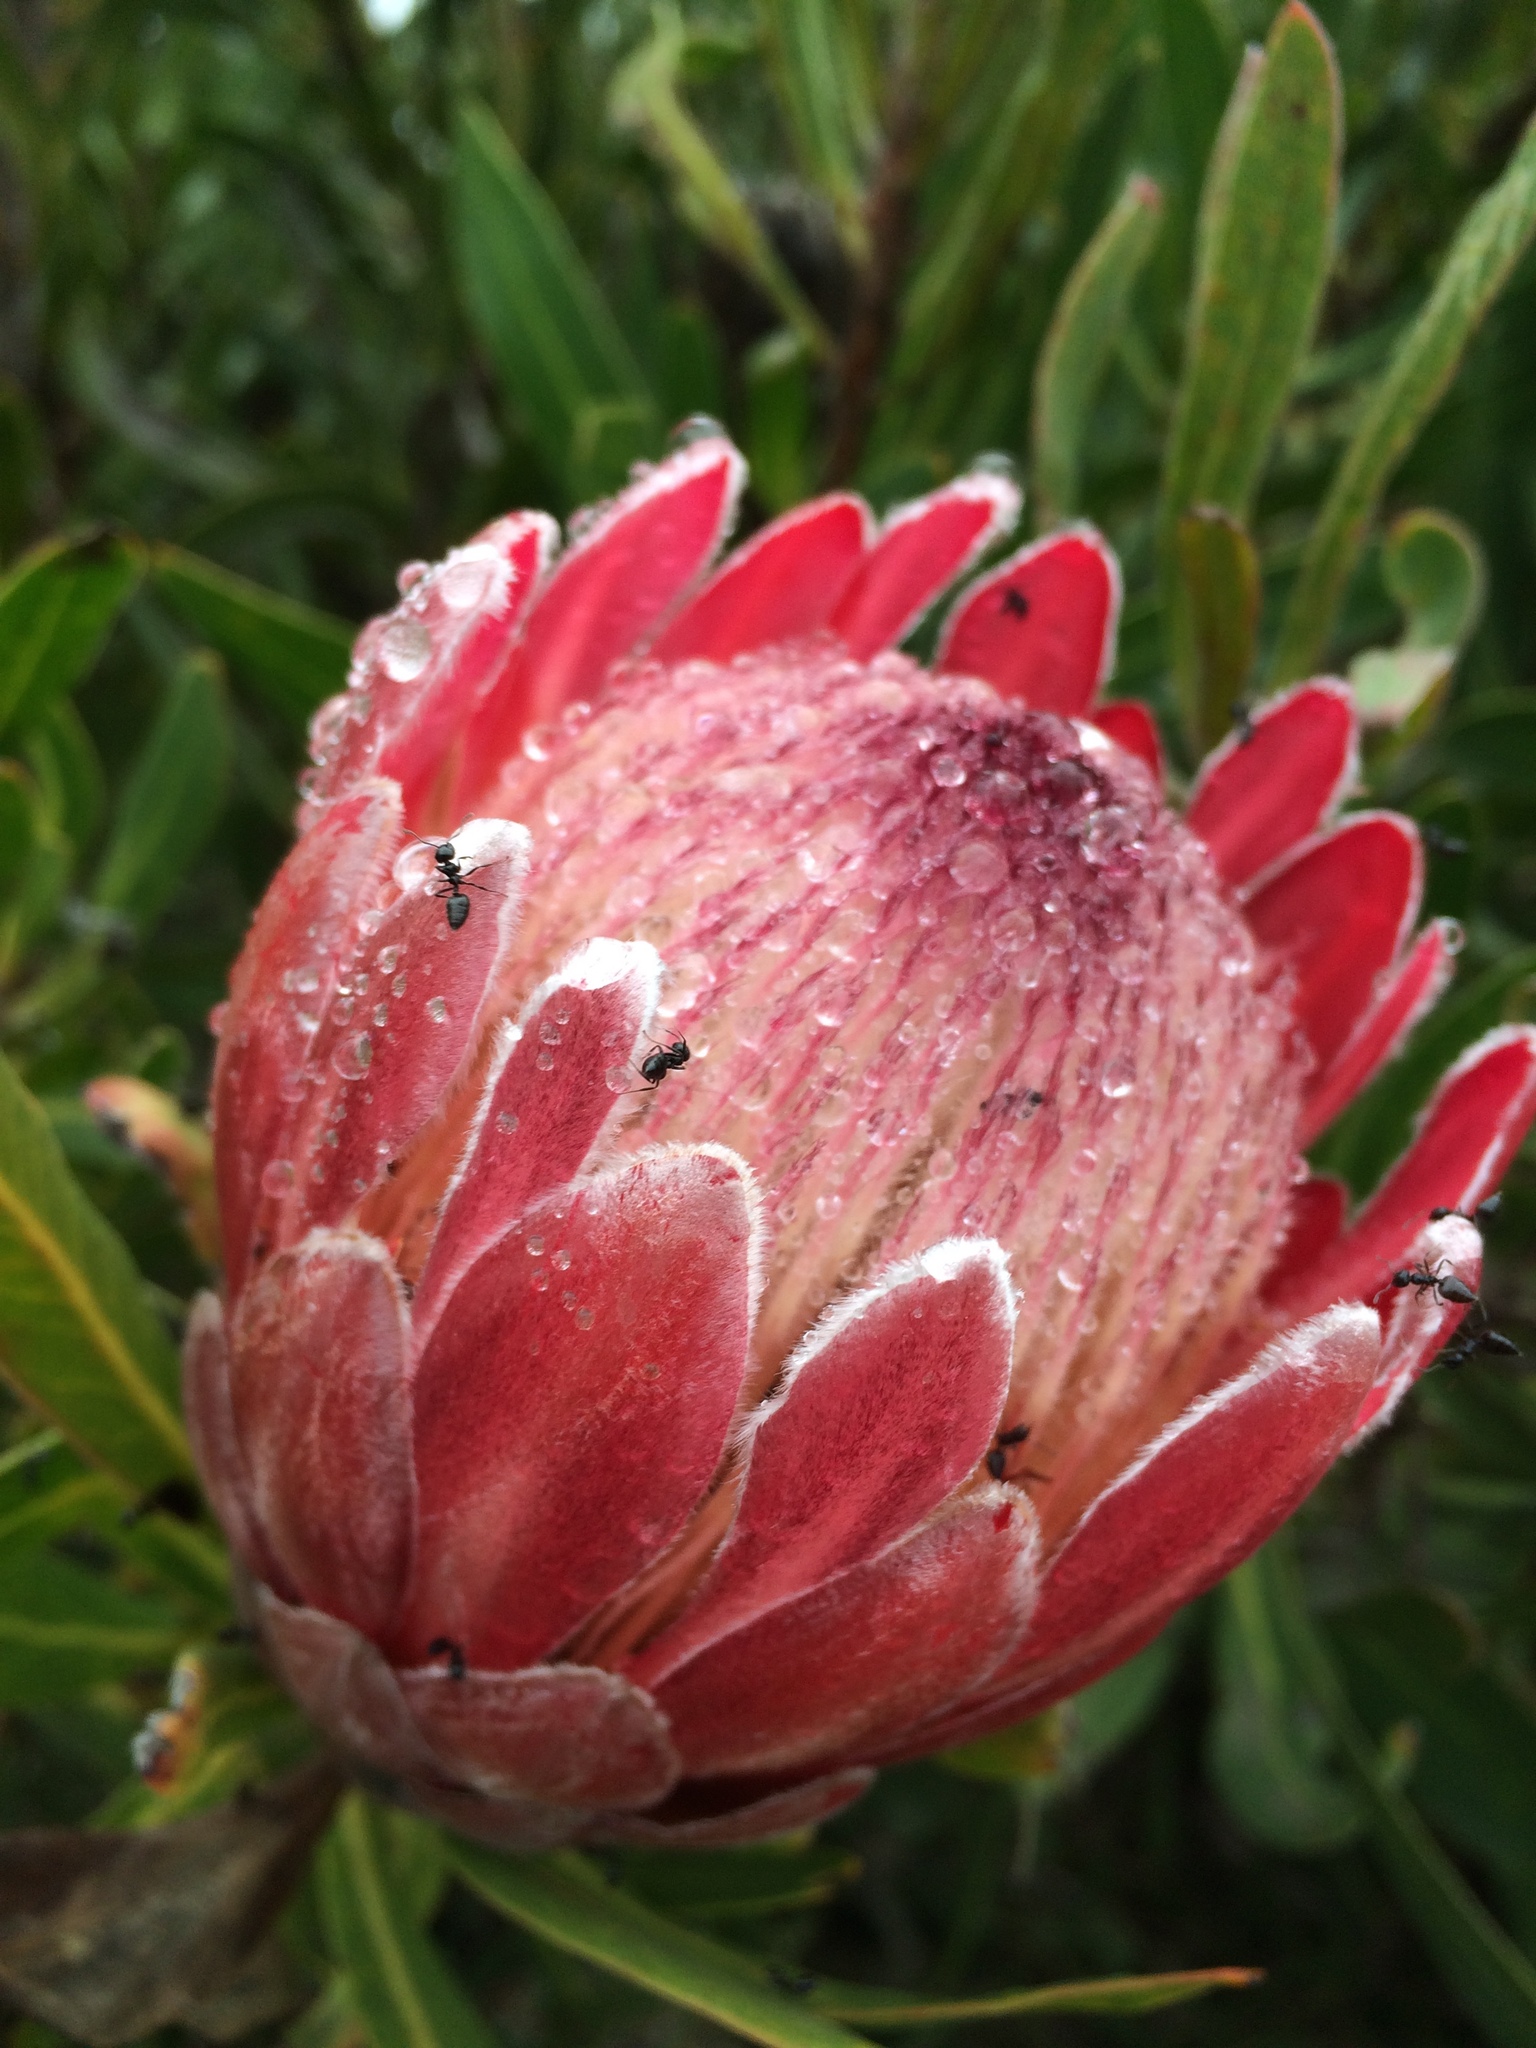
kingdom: Animalia
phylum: Arthropoda
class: Insecta
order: Hymenoptera
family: Formicidae
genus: Crematogaster
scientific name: Crematogaster peringueyi
